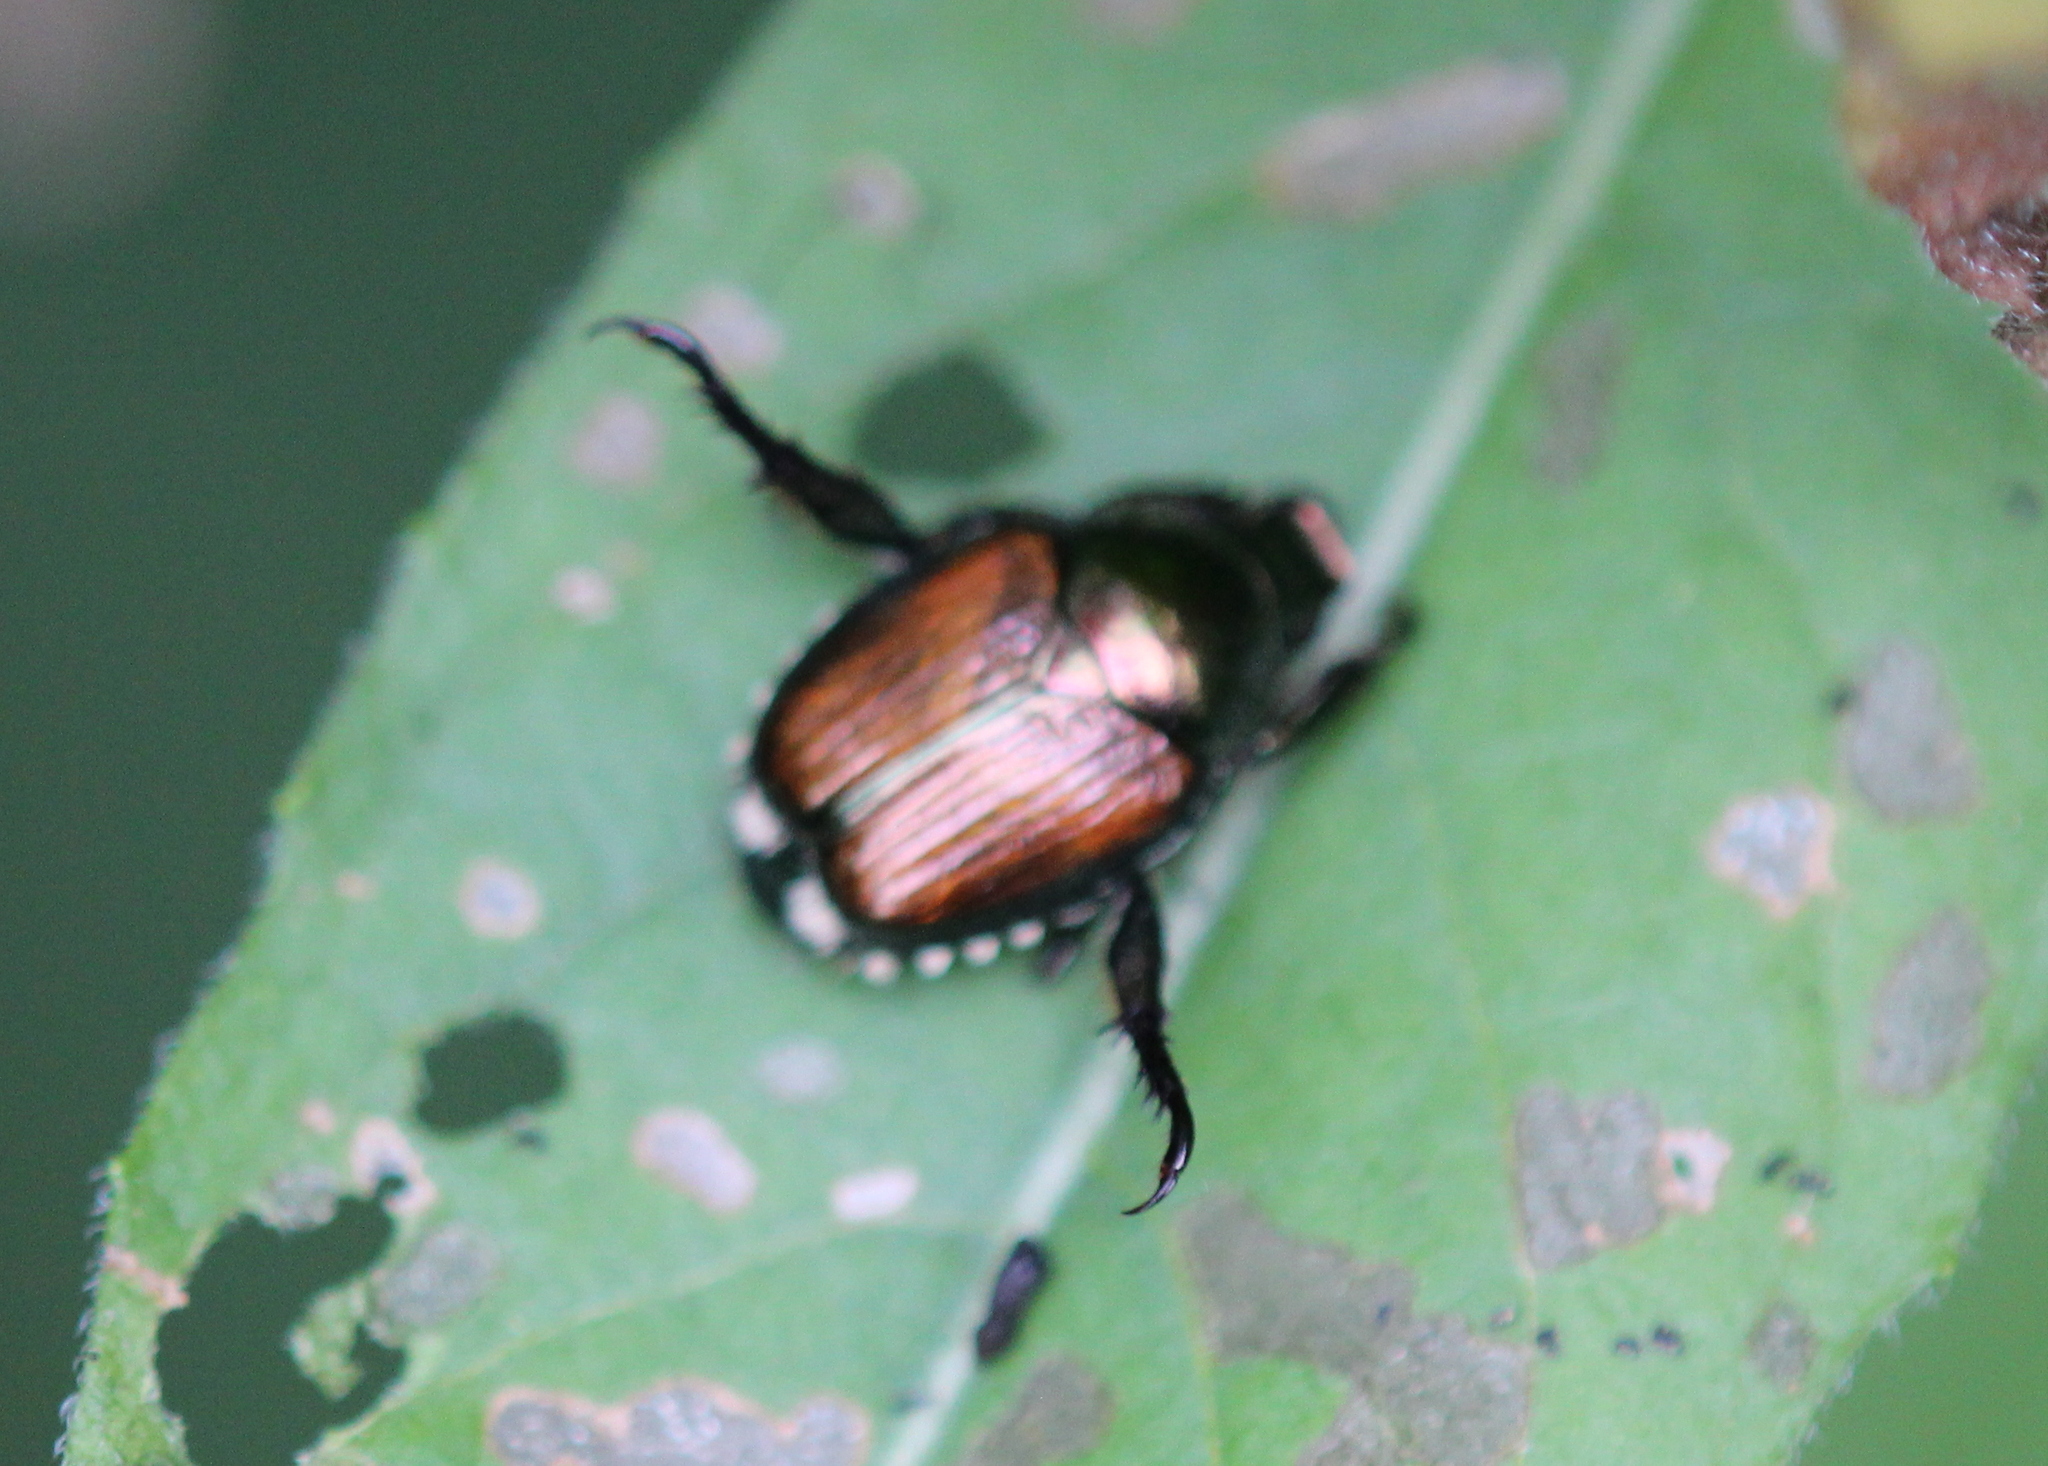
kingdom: Animalia
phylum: Arthropoda
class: Insecta
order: Coleoptera
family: Scarabaeidae
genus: Popillia
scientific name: Popillia japonica
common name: Japanese beetle
